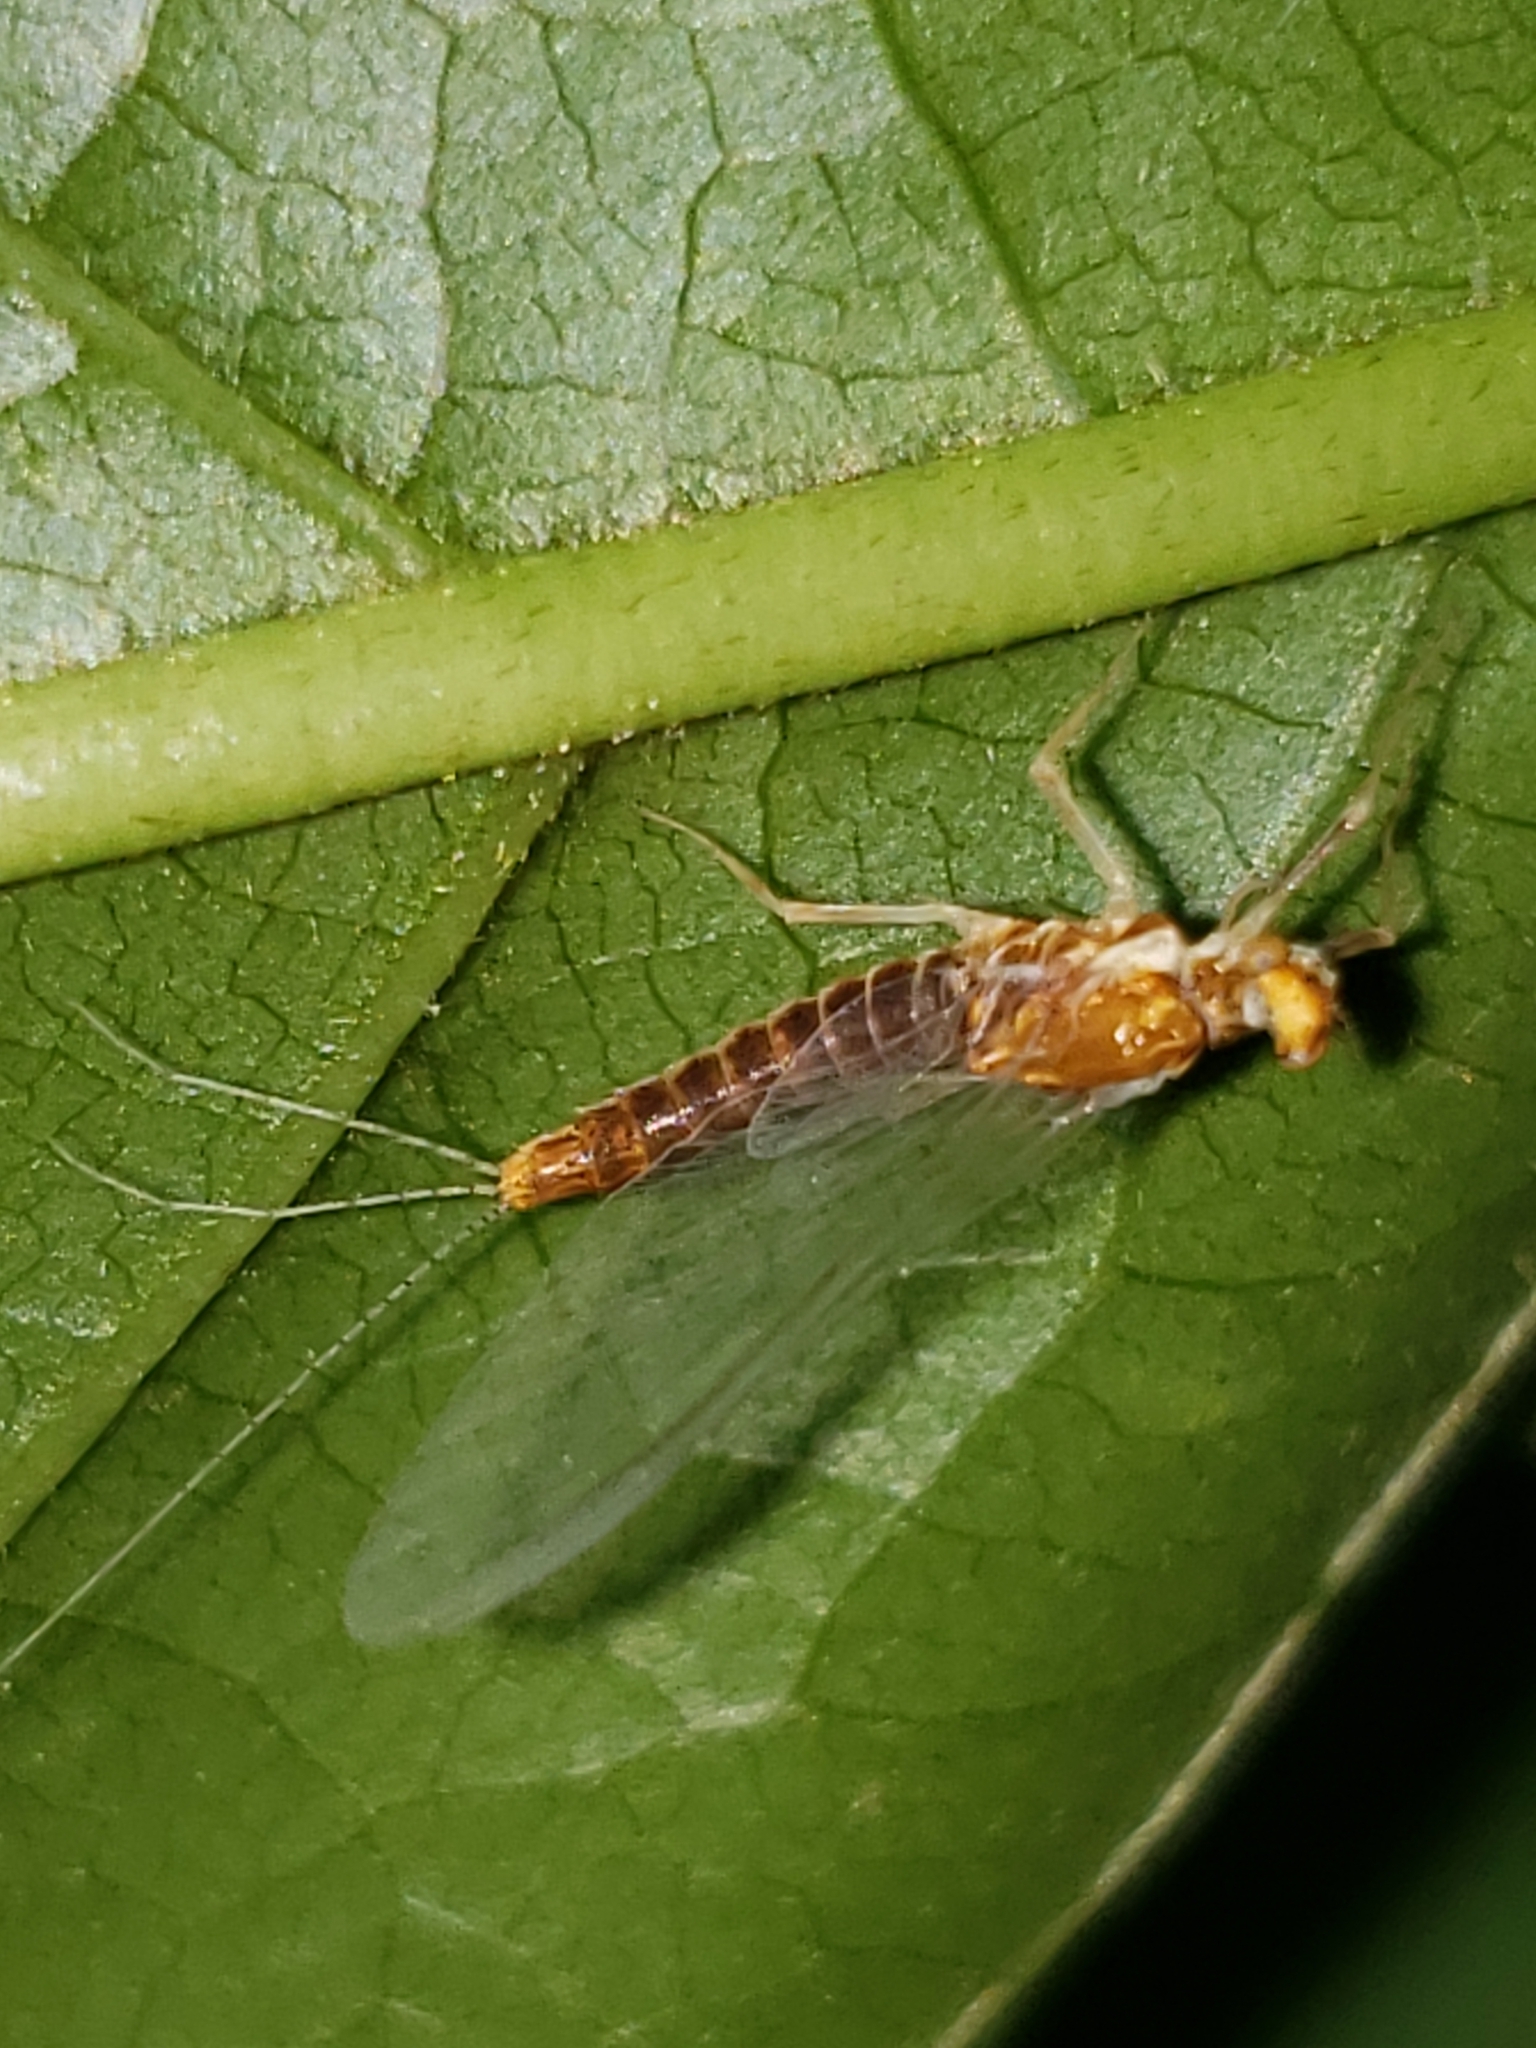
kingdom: Animalia
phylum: Arthropoda
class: Insecta
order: Ephemeroptera
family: Ephemerellidae
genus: Ephemerella
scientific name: Ephemerella needhami
